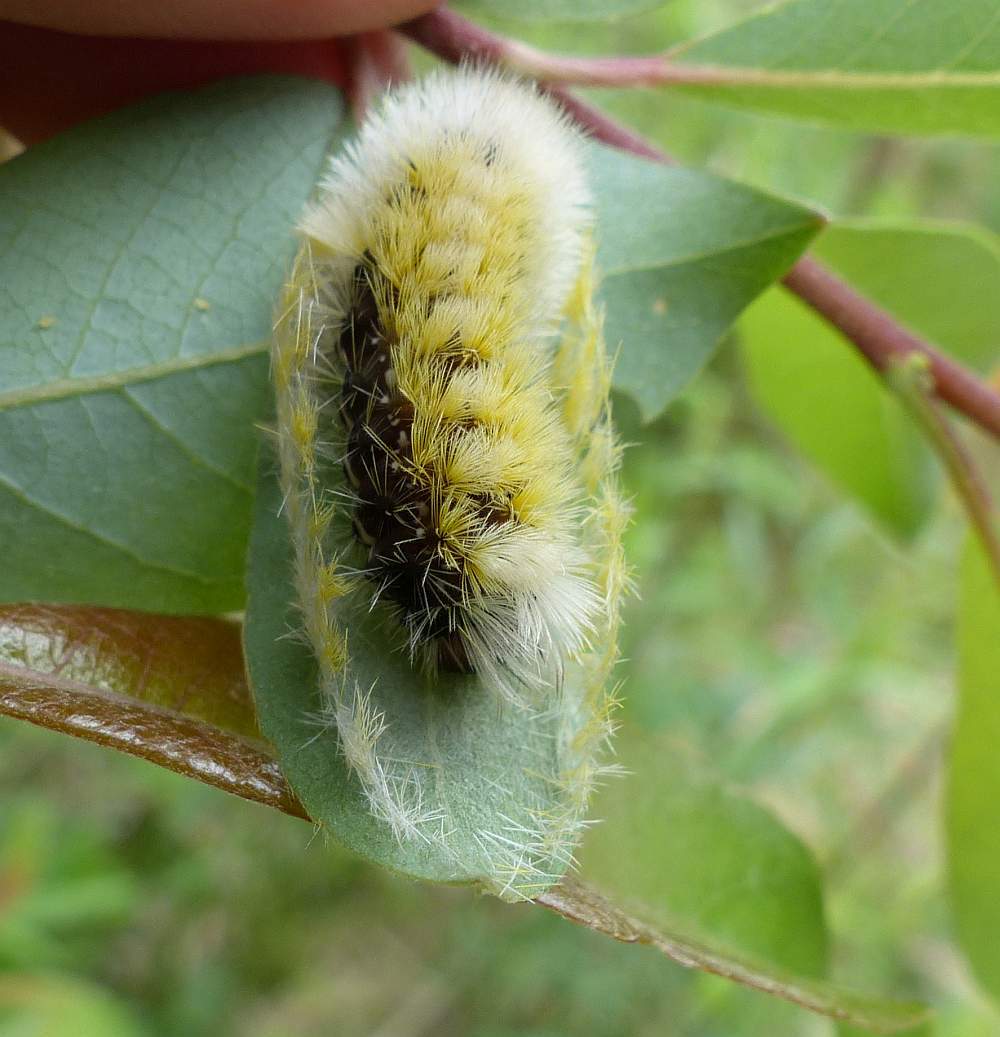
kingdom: Animalia
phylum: Arthropoda
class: Insecta
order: Lepidoptera
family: Erebidae
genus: Ctenucha
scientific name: Ctenucha virginica
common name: Virginia ctenucha moth
